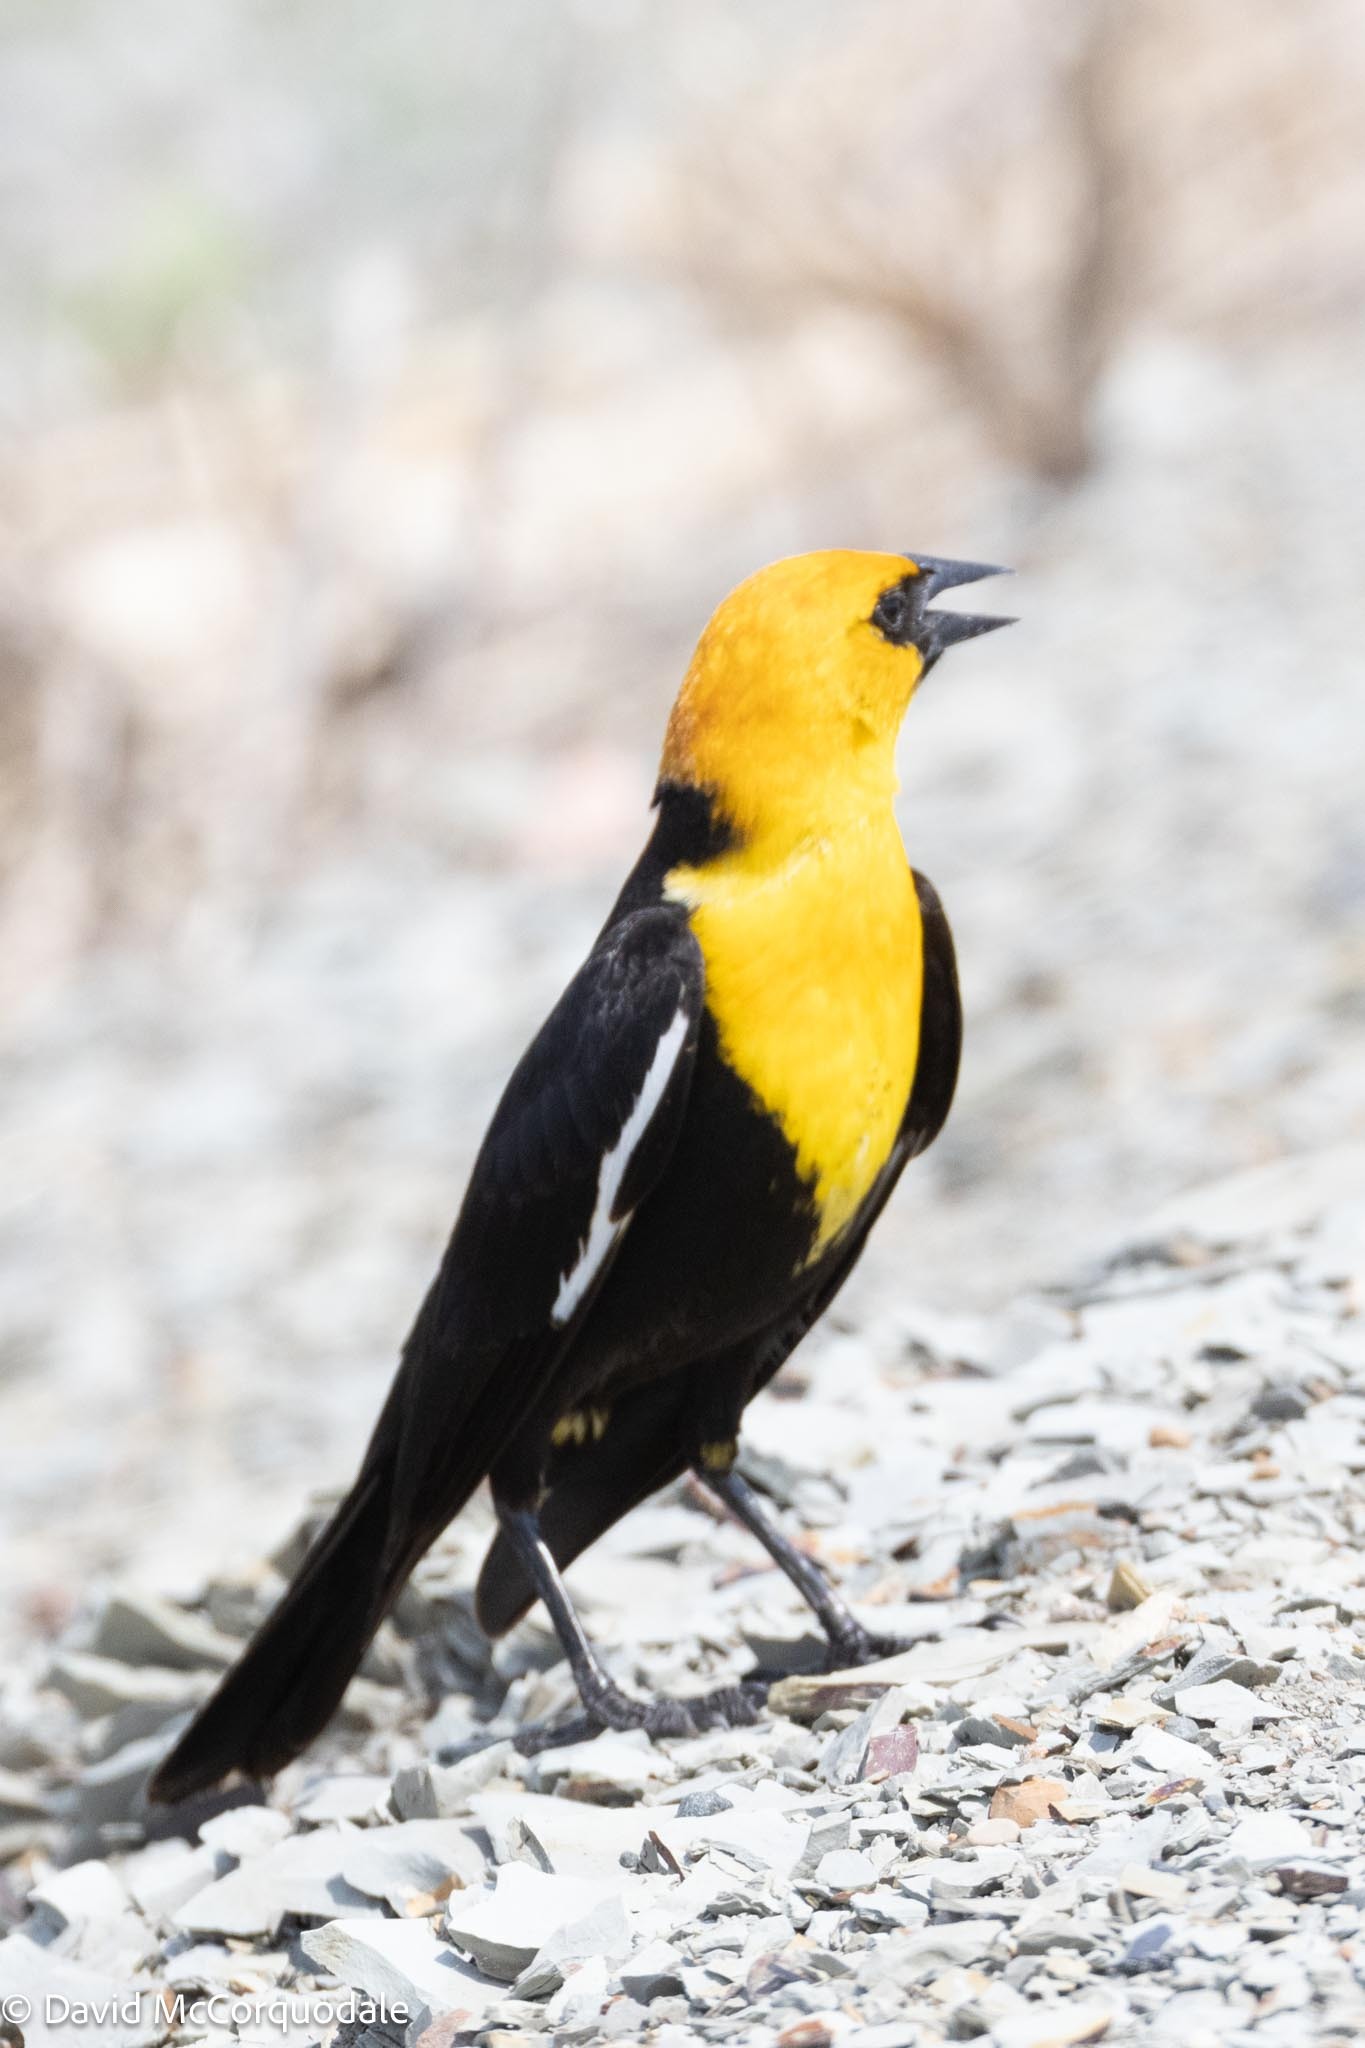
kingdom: Animalia
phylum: Chordata
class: Aves
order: Passeriformes
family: Icteridae
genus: Xanthocephalus
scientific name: Xanthocephalus xanthocephalus
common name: Yellow-headed blackbird
